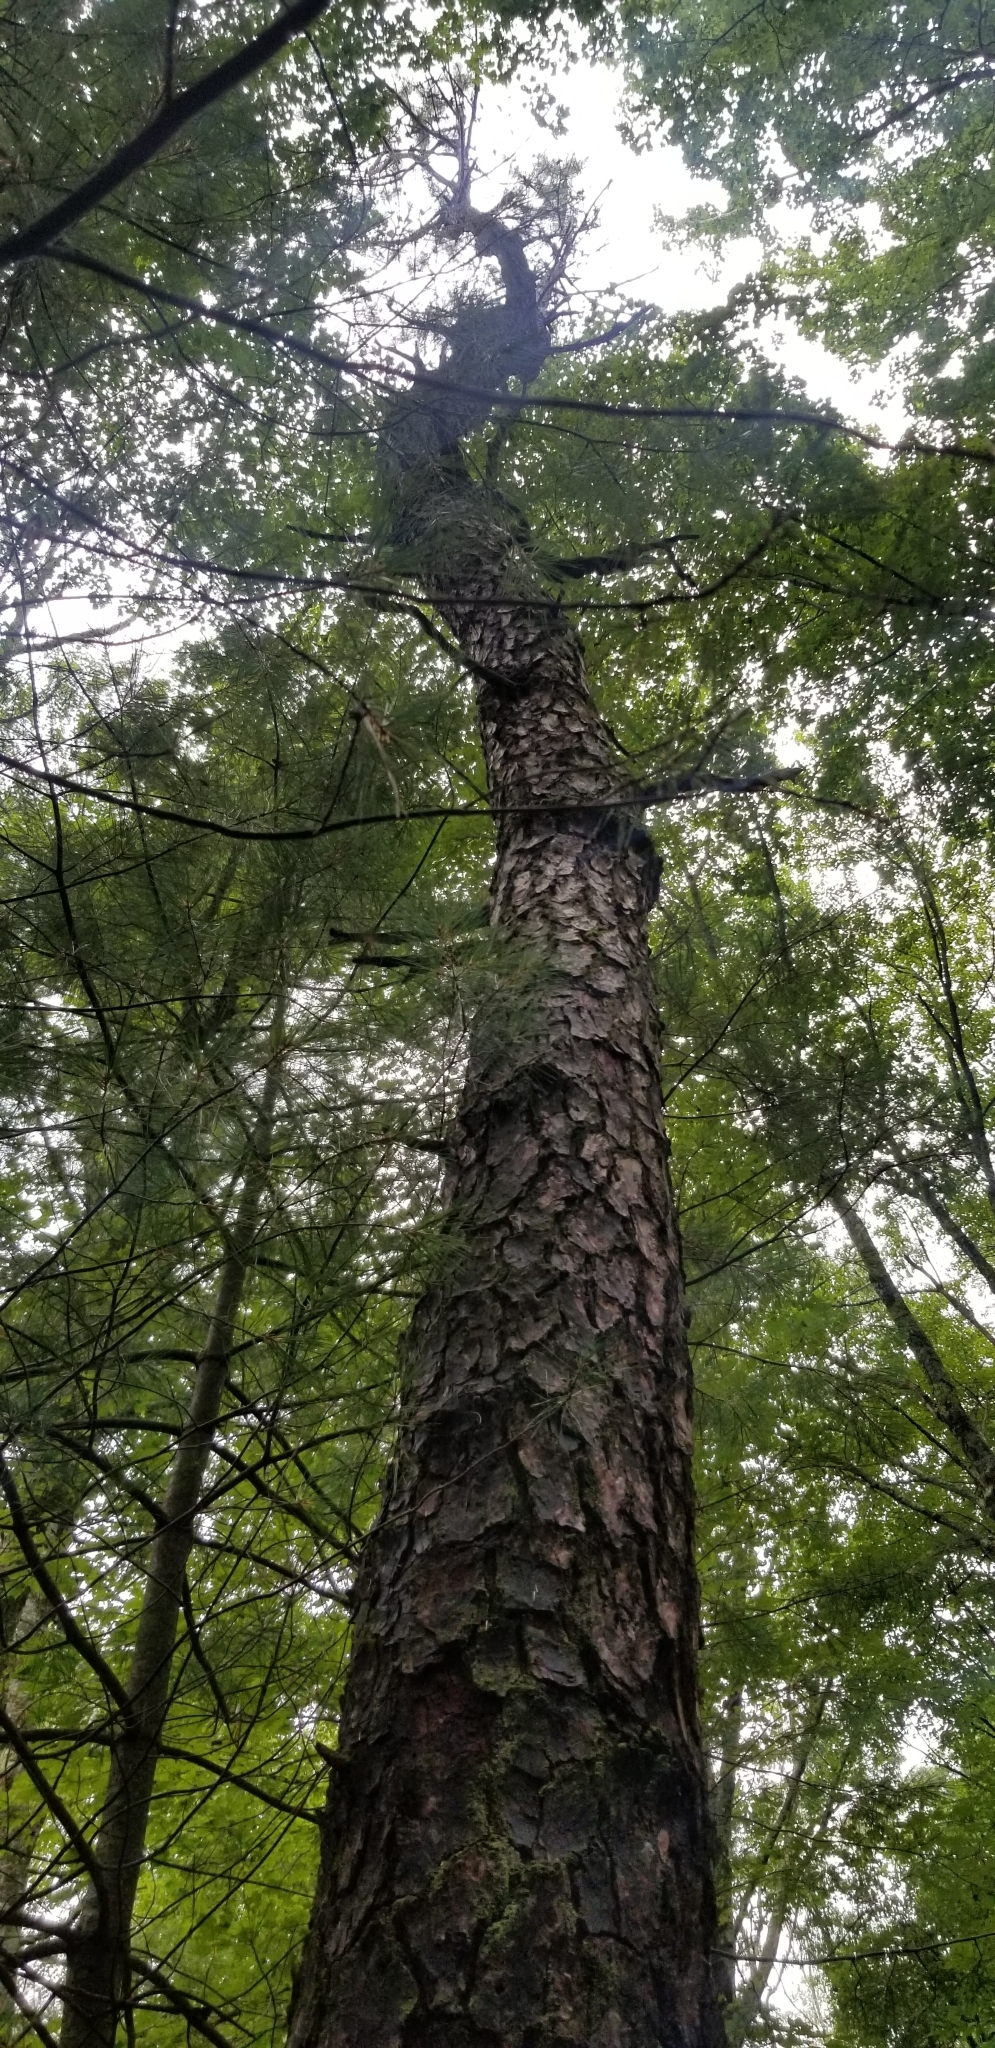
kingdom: Plantae
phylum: Tracheophyta
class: Pinopsida
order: Pinales
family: Pinaceae
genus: Pinus
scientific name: Pinus rigida
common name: Pitch pine
